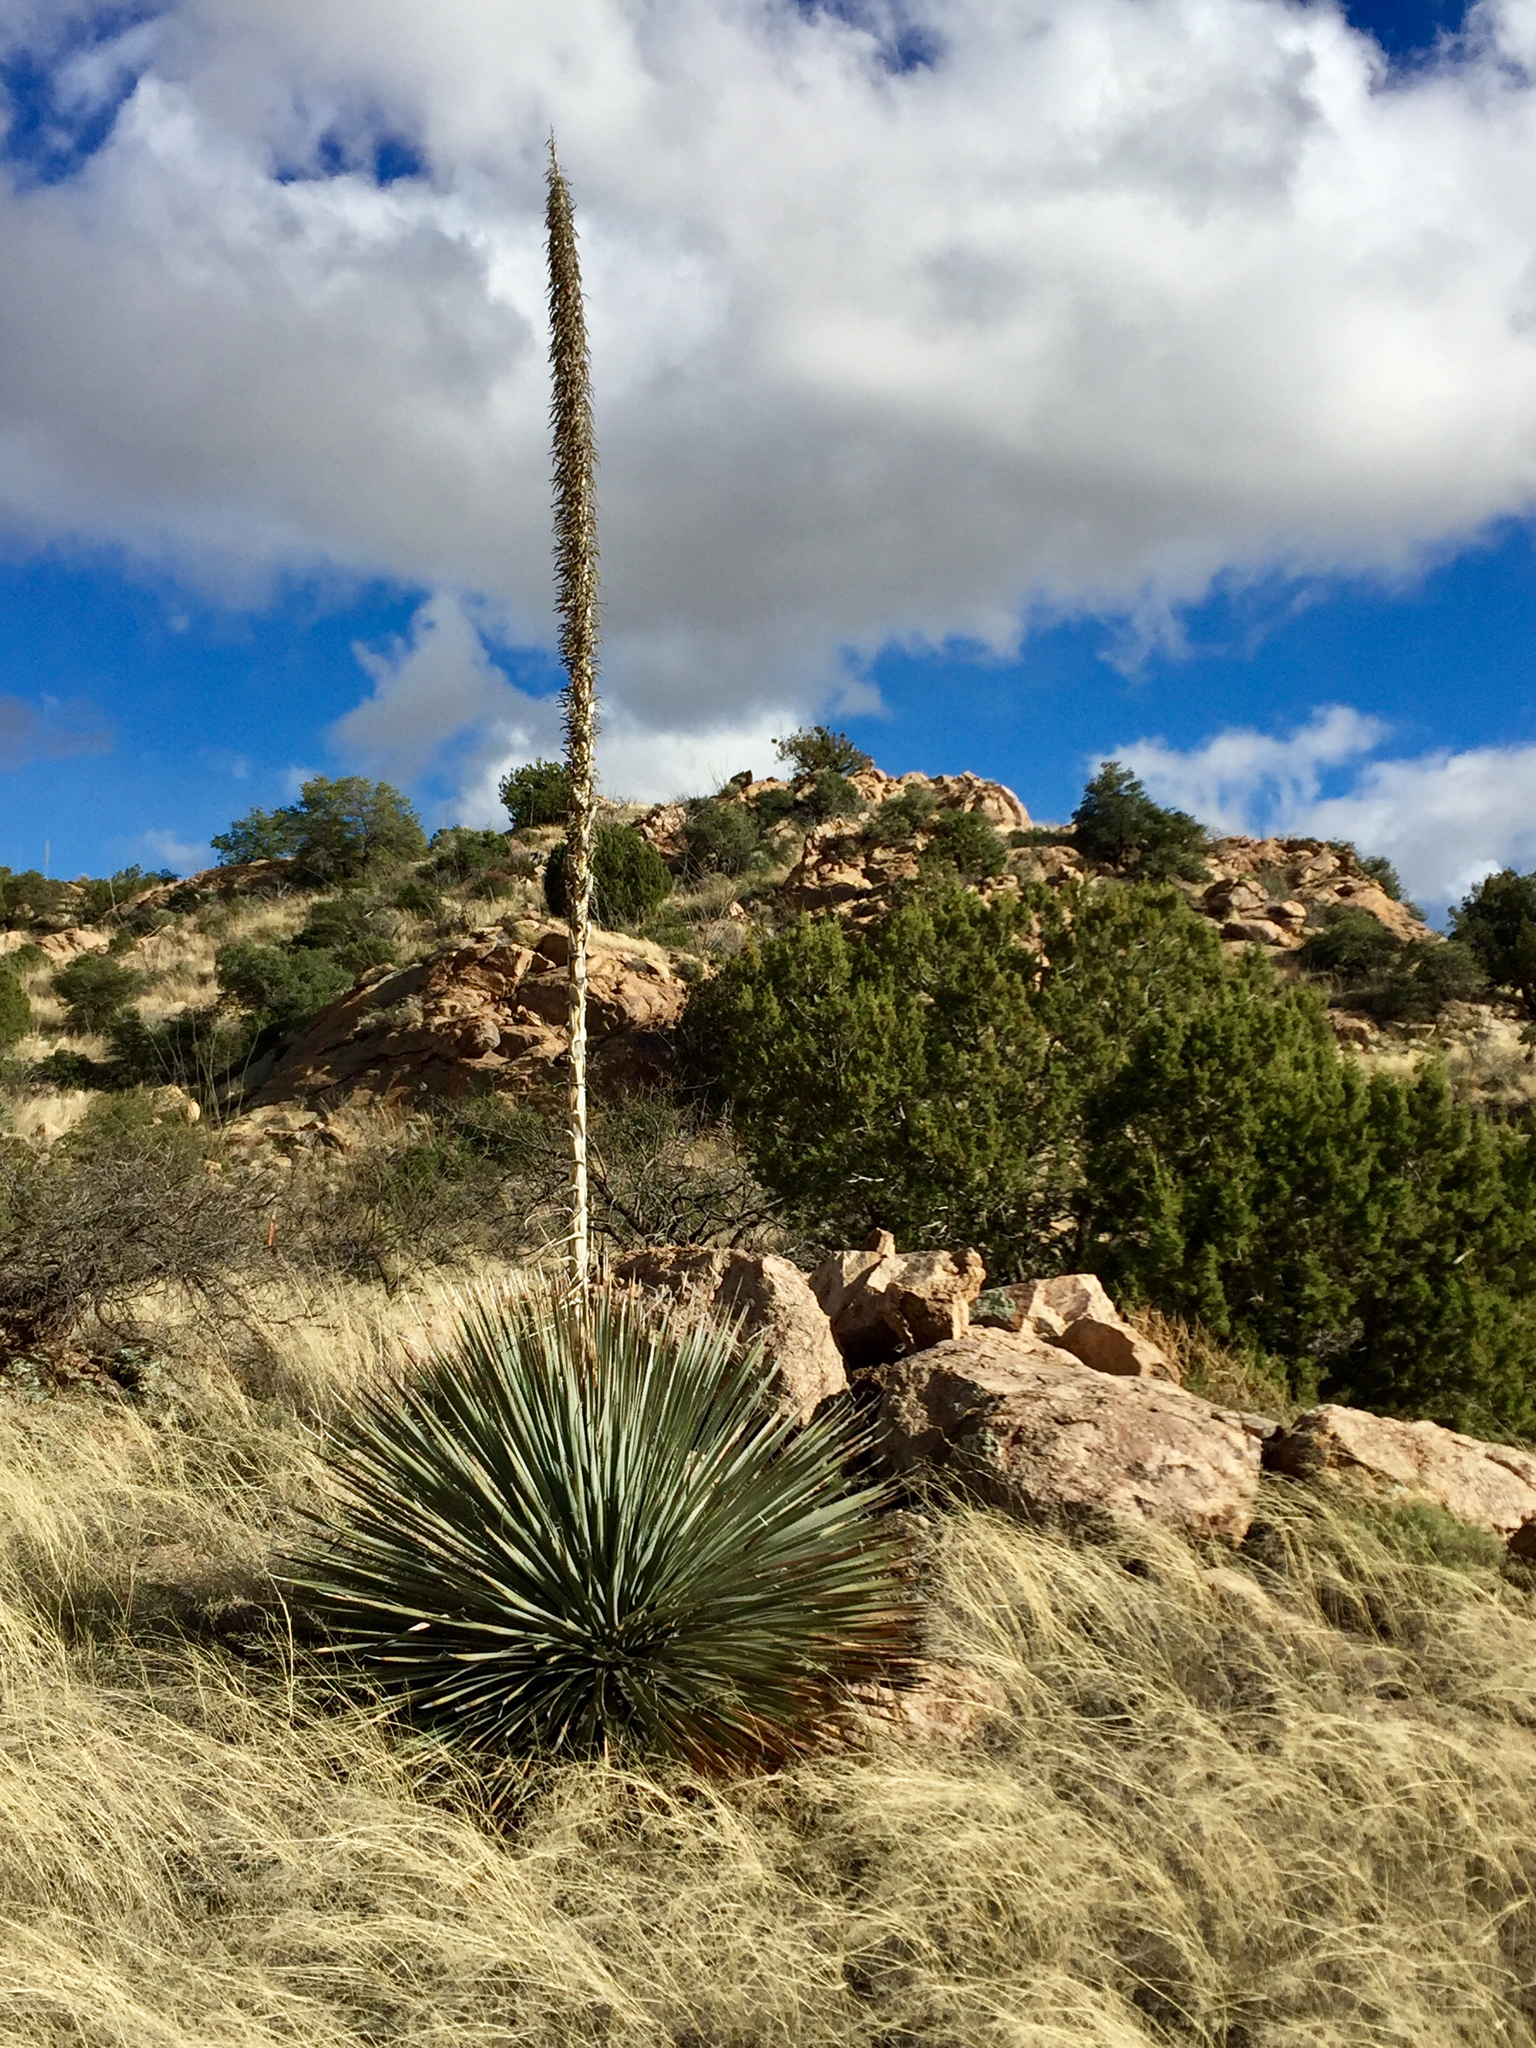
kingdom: Plantae
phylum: Tracheophyta
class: Liliopsida
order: Asparagales
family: Asparagaceae
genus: Dasylirion
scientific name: Dasylirion wheeleri
